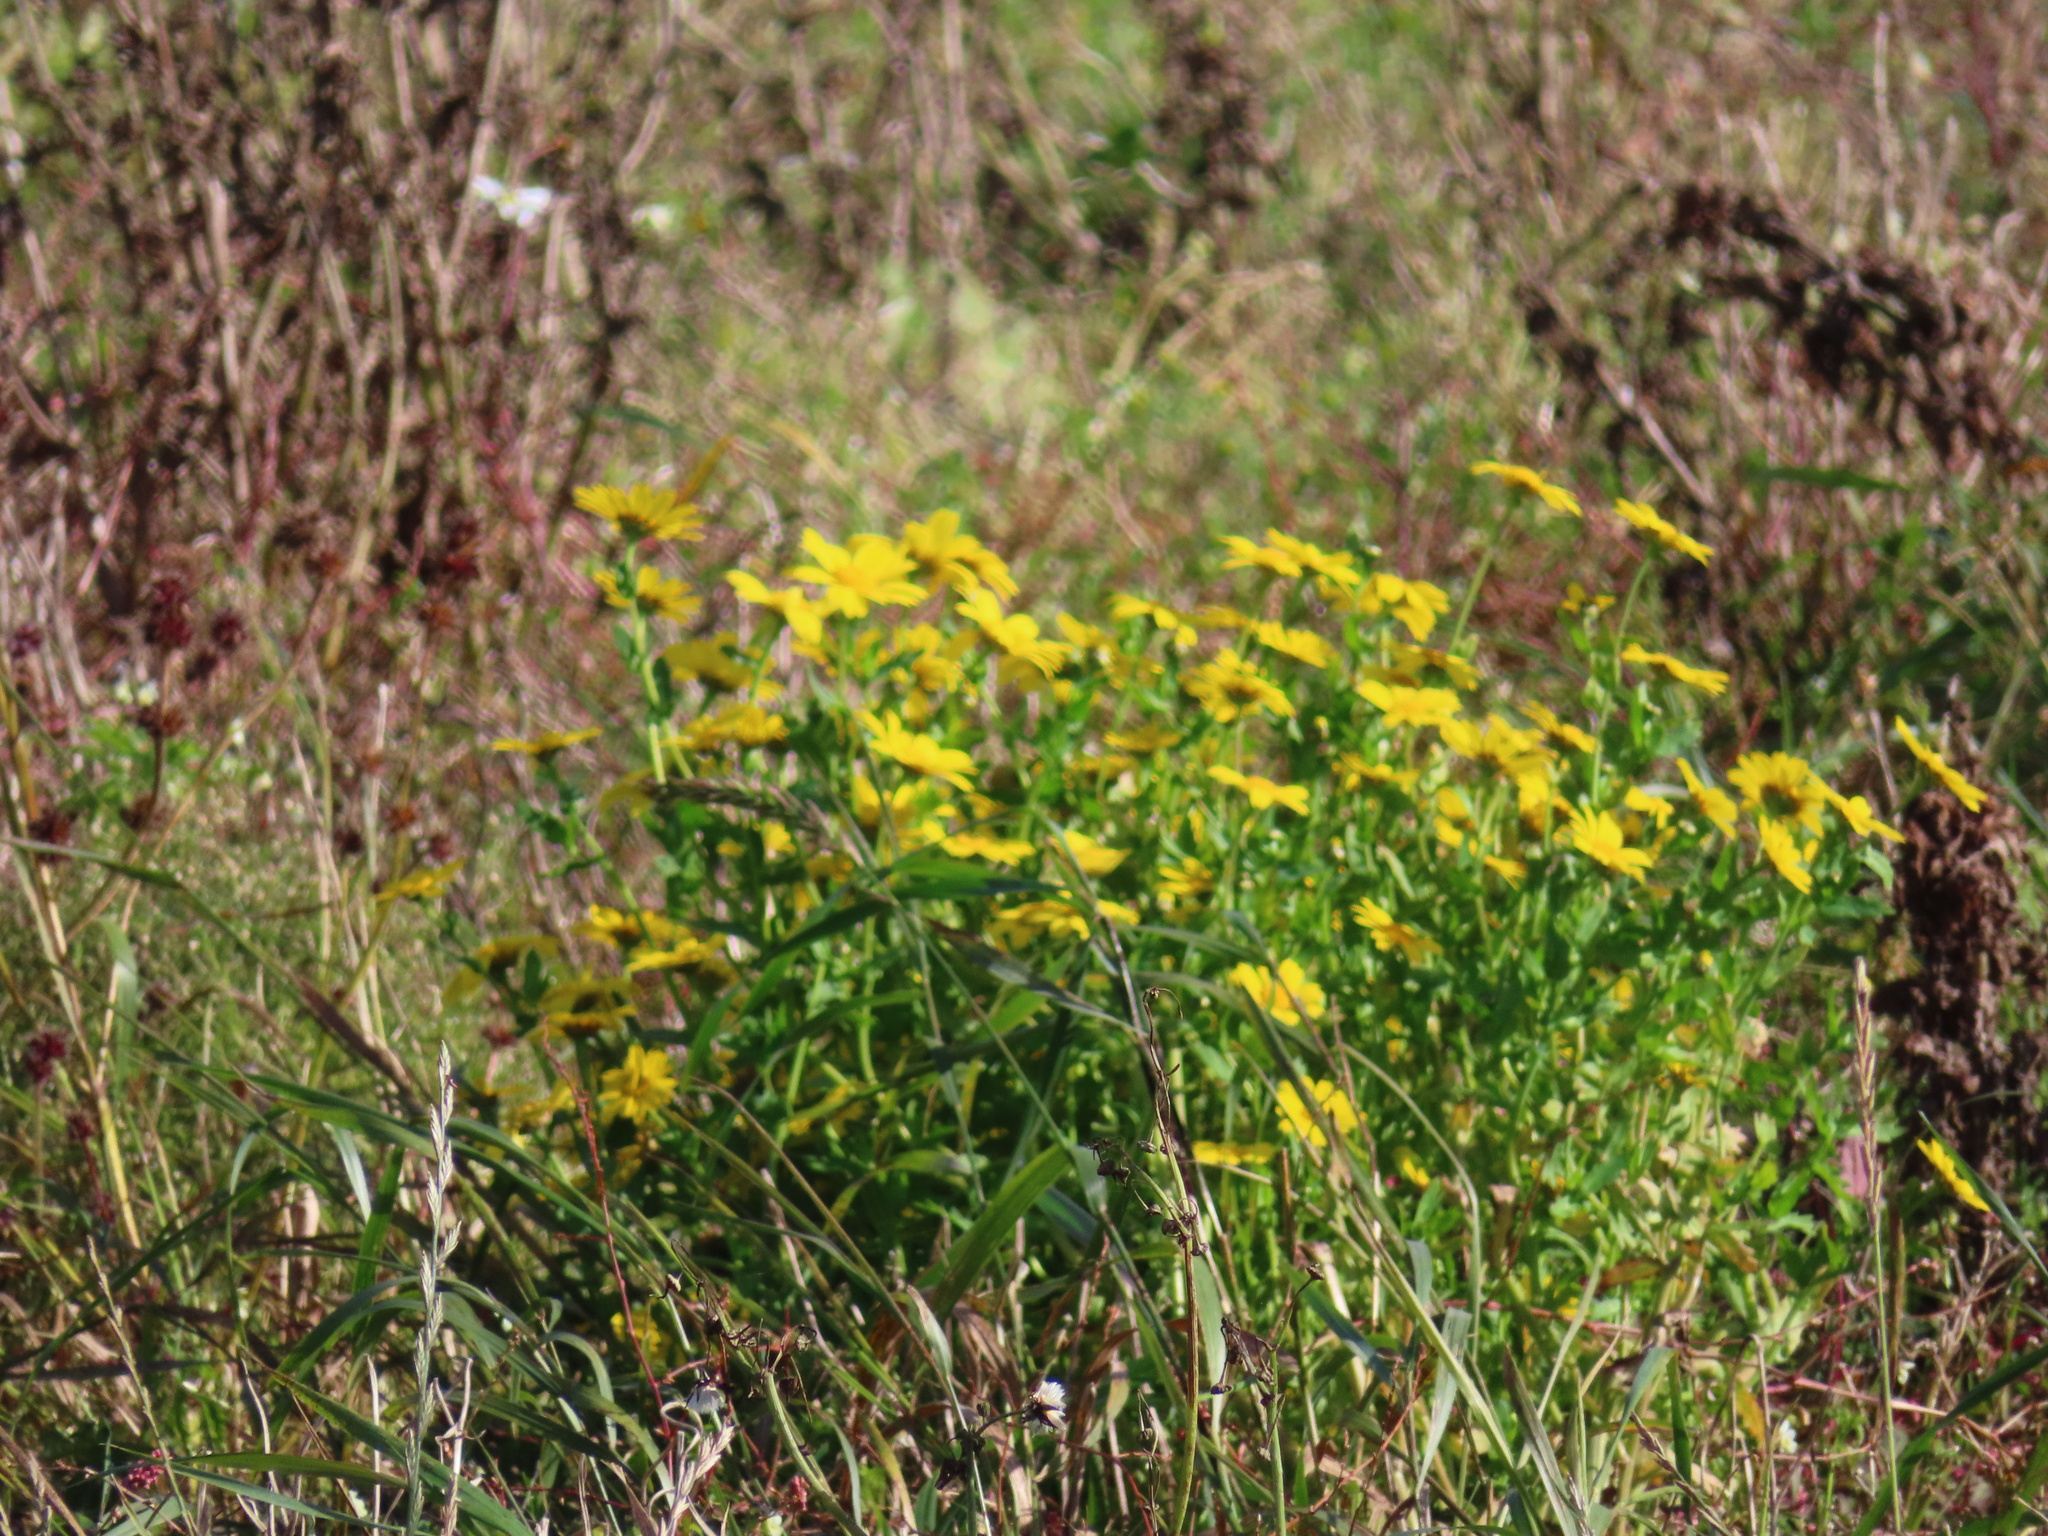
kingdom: Plantae
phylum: Tracheophyta
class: Magnoliopsida
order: Asterales
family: Asteraceae
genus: Glebionis
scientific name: Glebionis segetum
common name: Corndaisy
